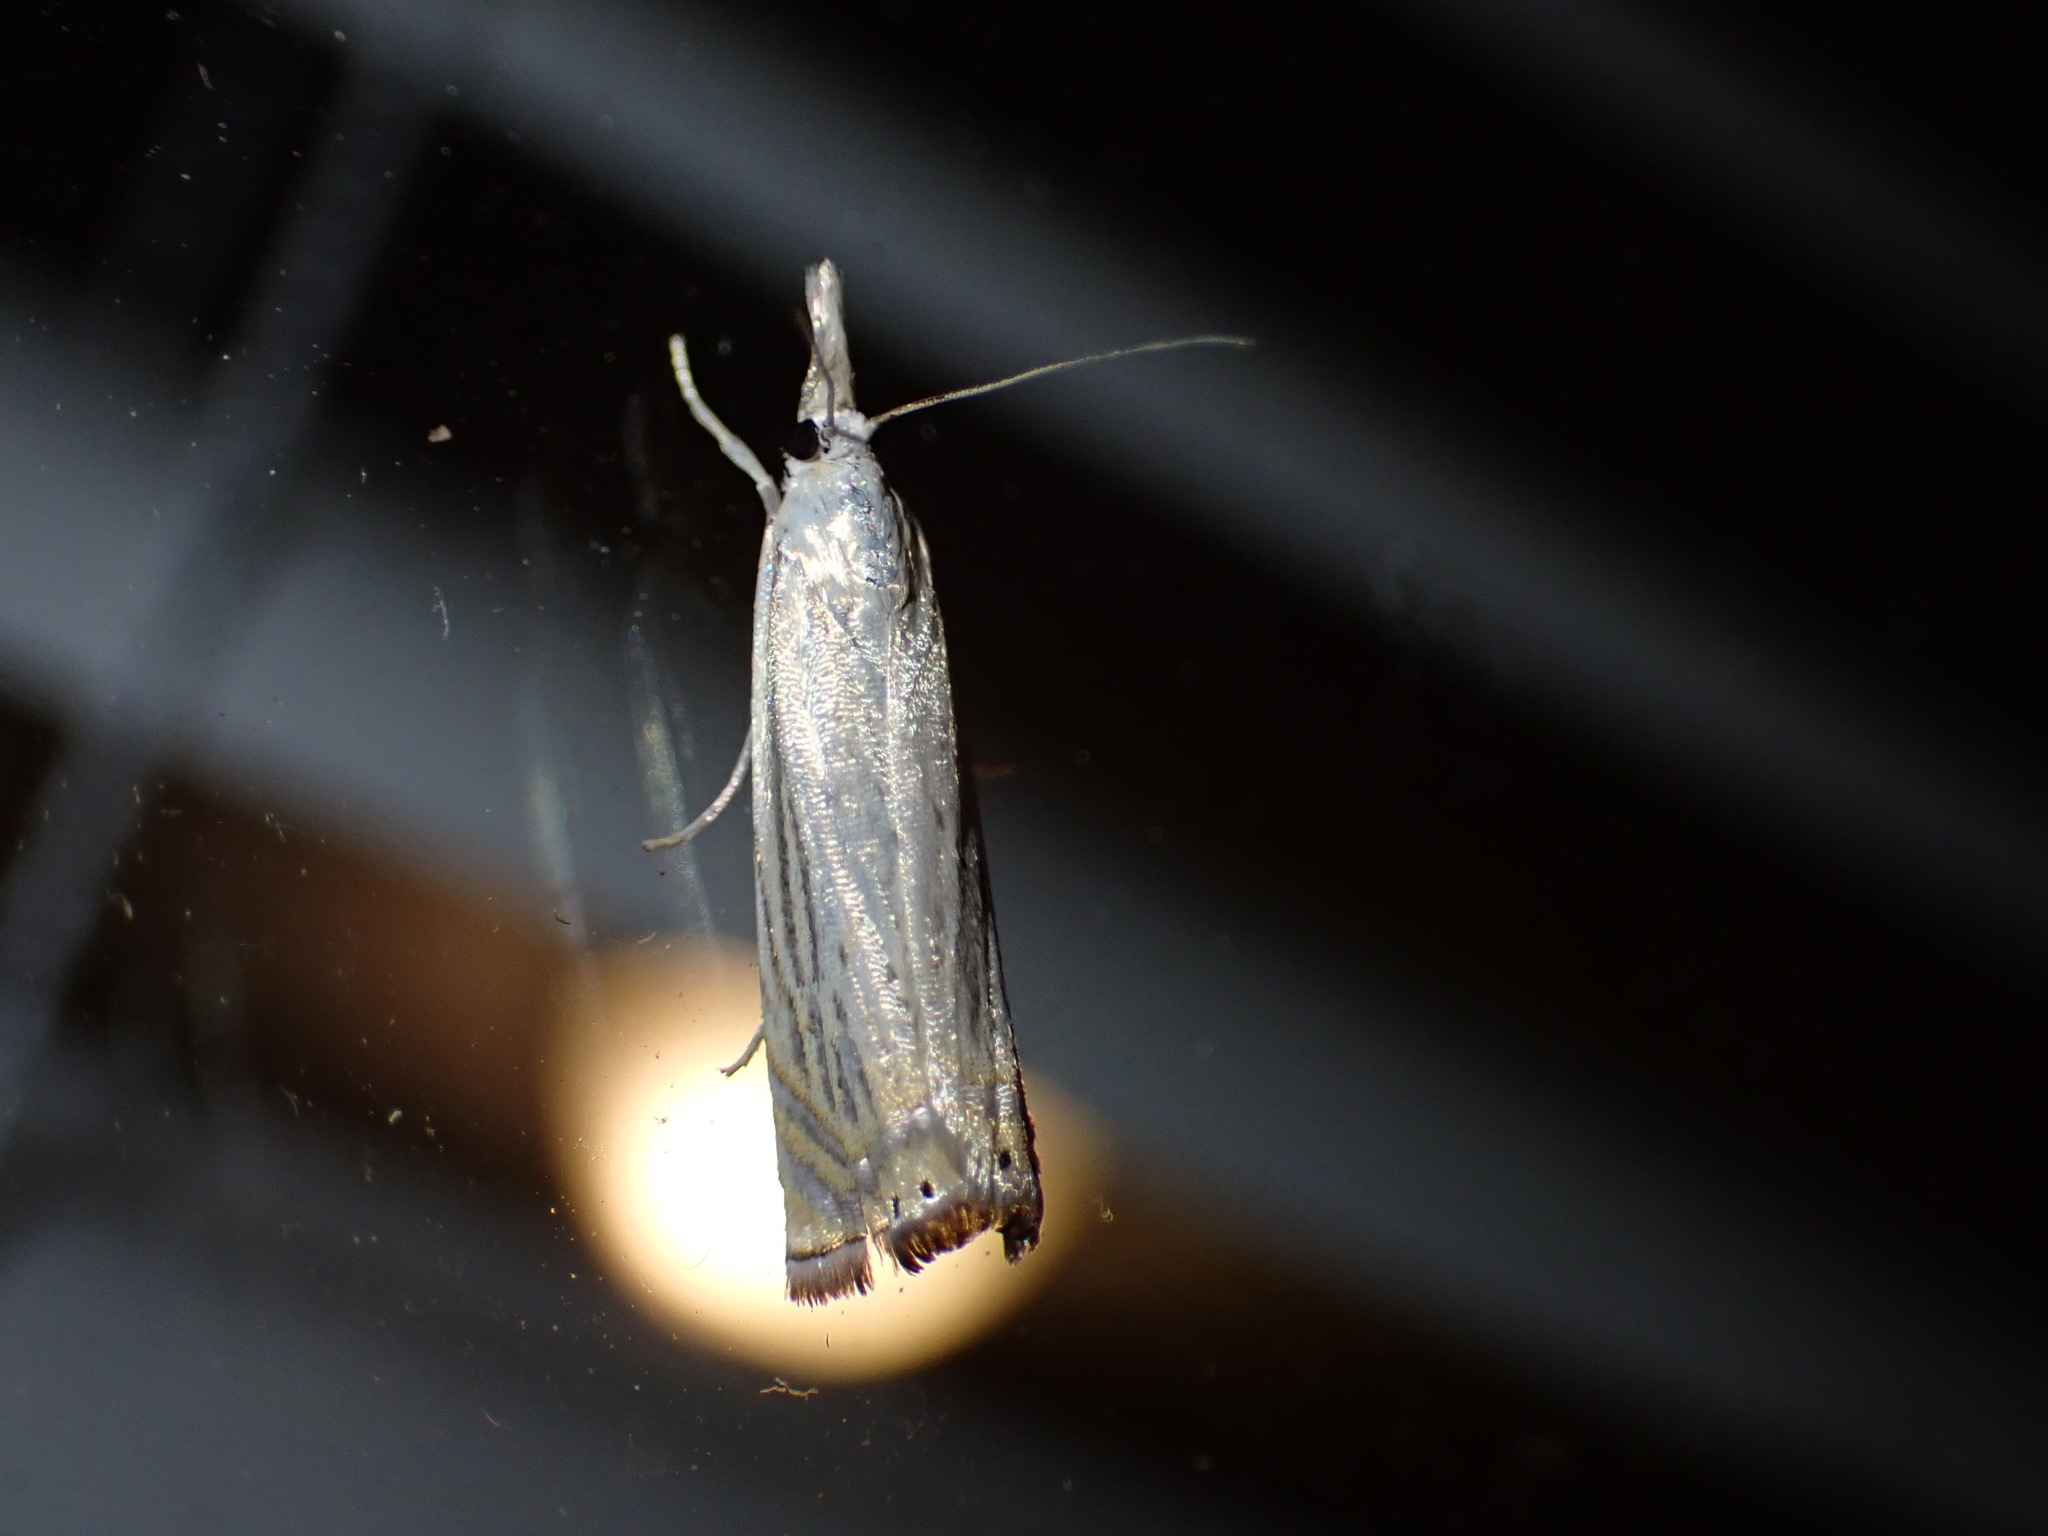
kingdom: Animalia
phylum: Arthropoda
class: Insecta
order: Lepidoptera
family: Crambidae
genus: Chrysoteuchia
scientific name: Chrysoteuchia topiarius
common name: Topiary grass-veneer
